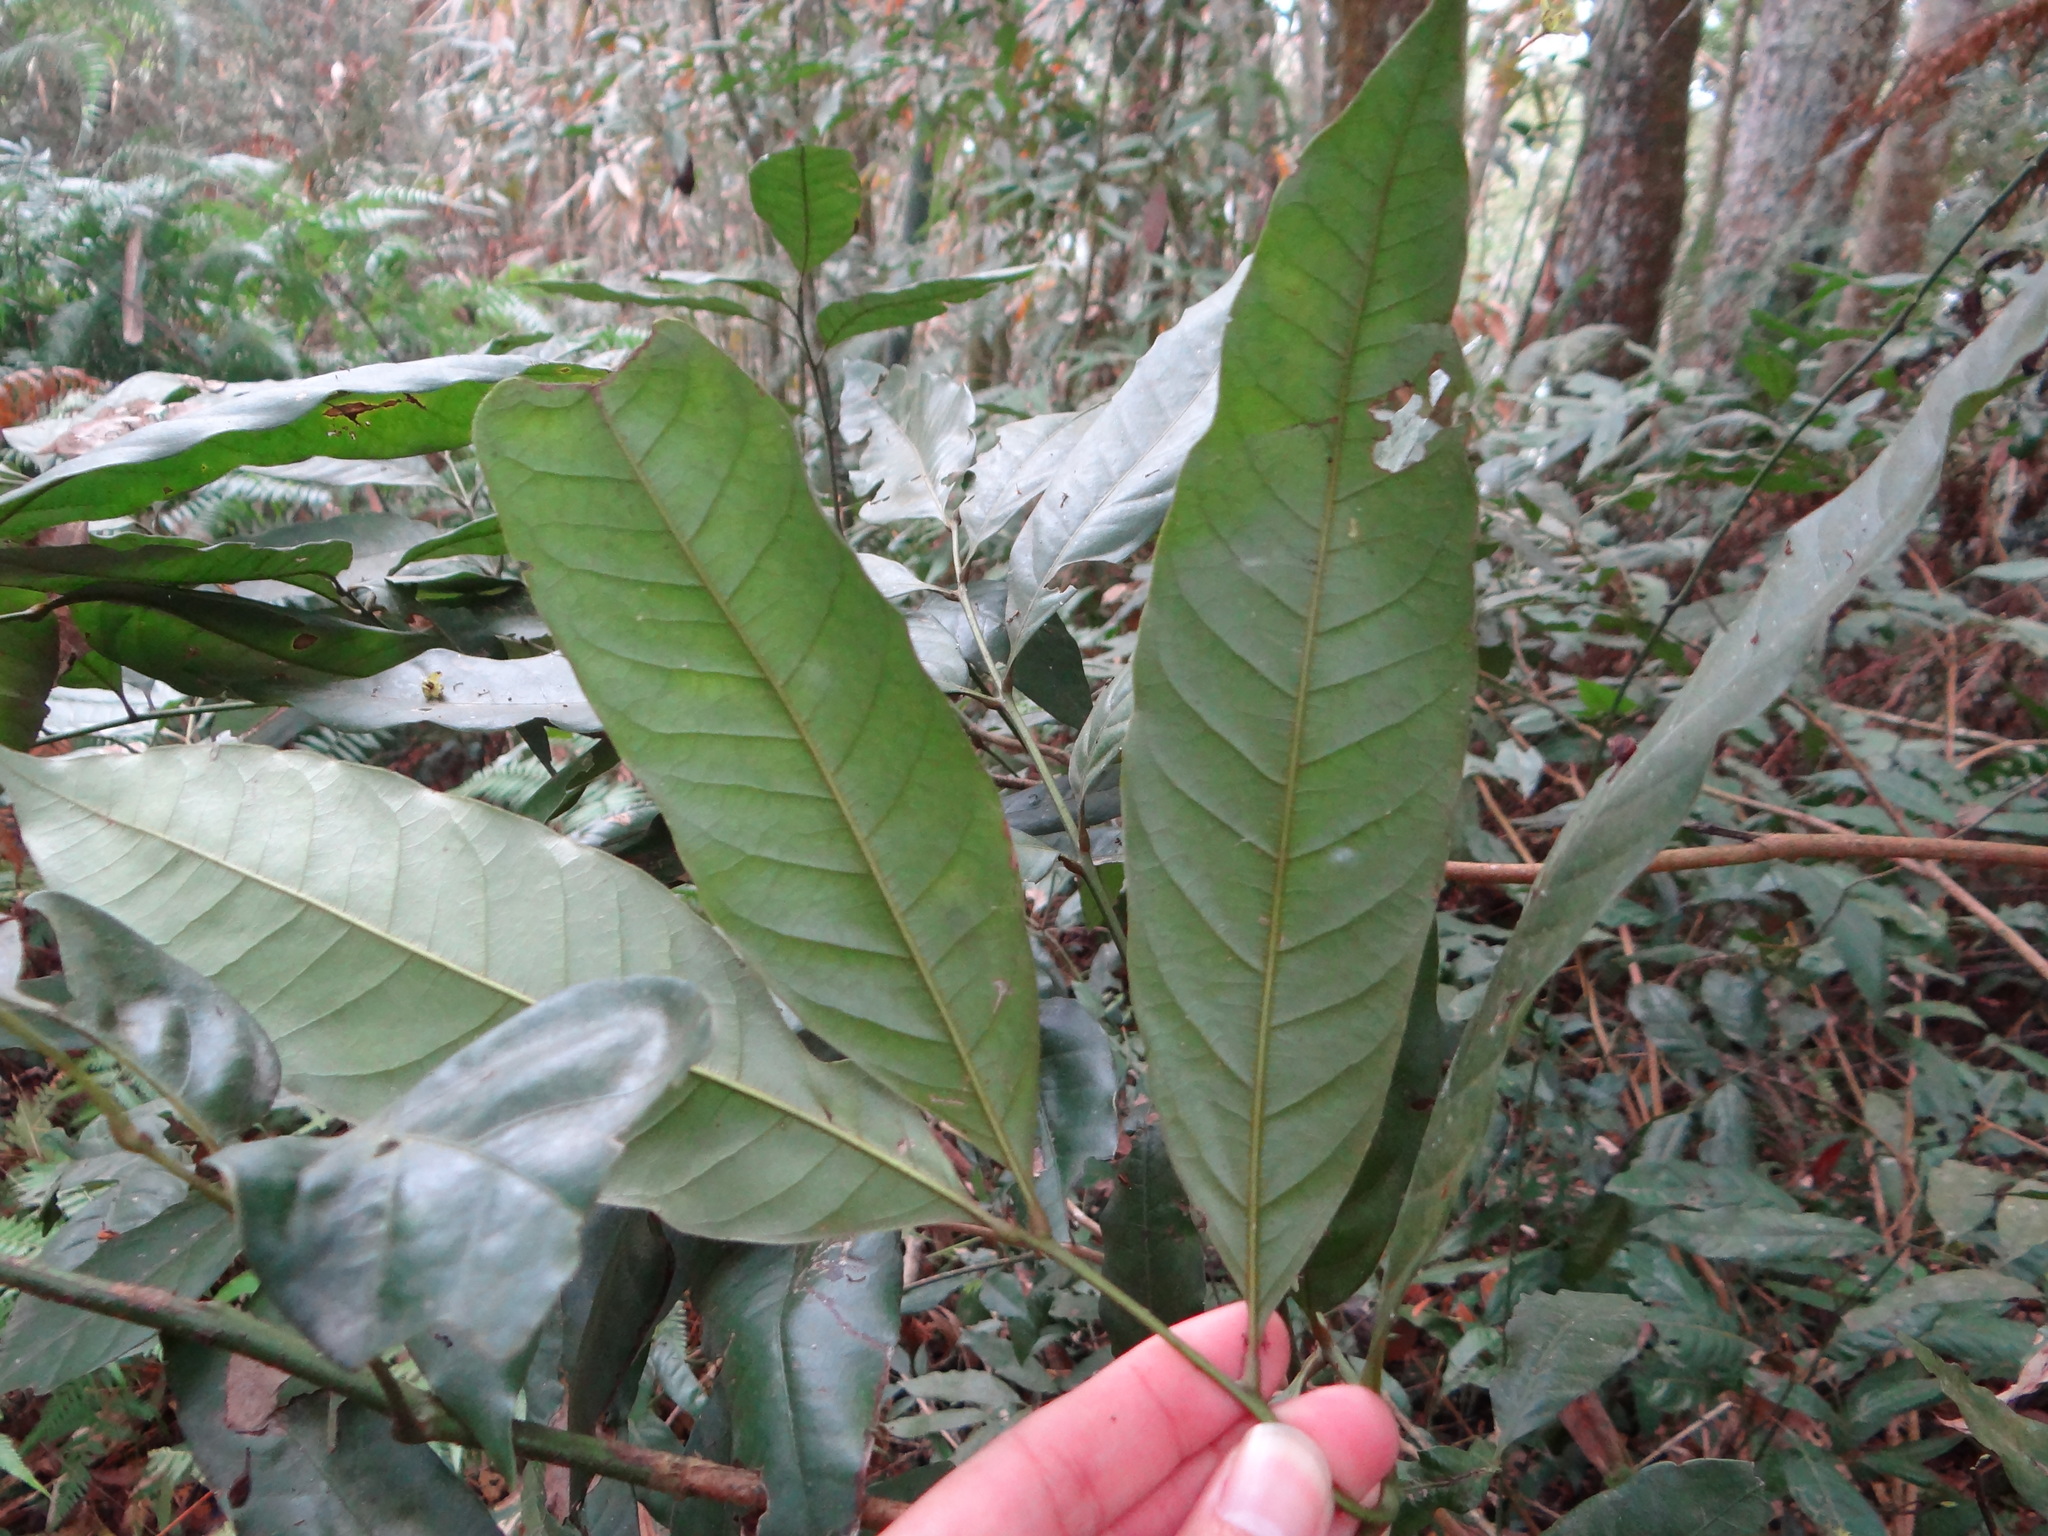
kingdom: Plantae
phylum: Tracheophyta
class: Magnoliopsida
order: Fagales
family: Juglandaceae
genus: Engelhardia
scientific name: Engelhardia roxburghiana
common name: Golden malay beam
